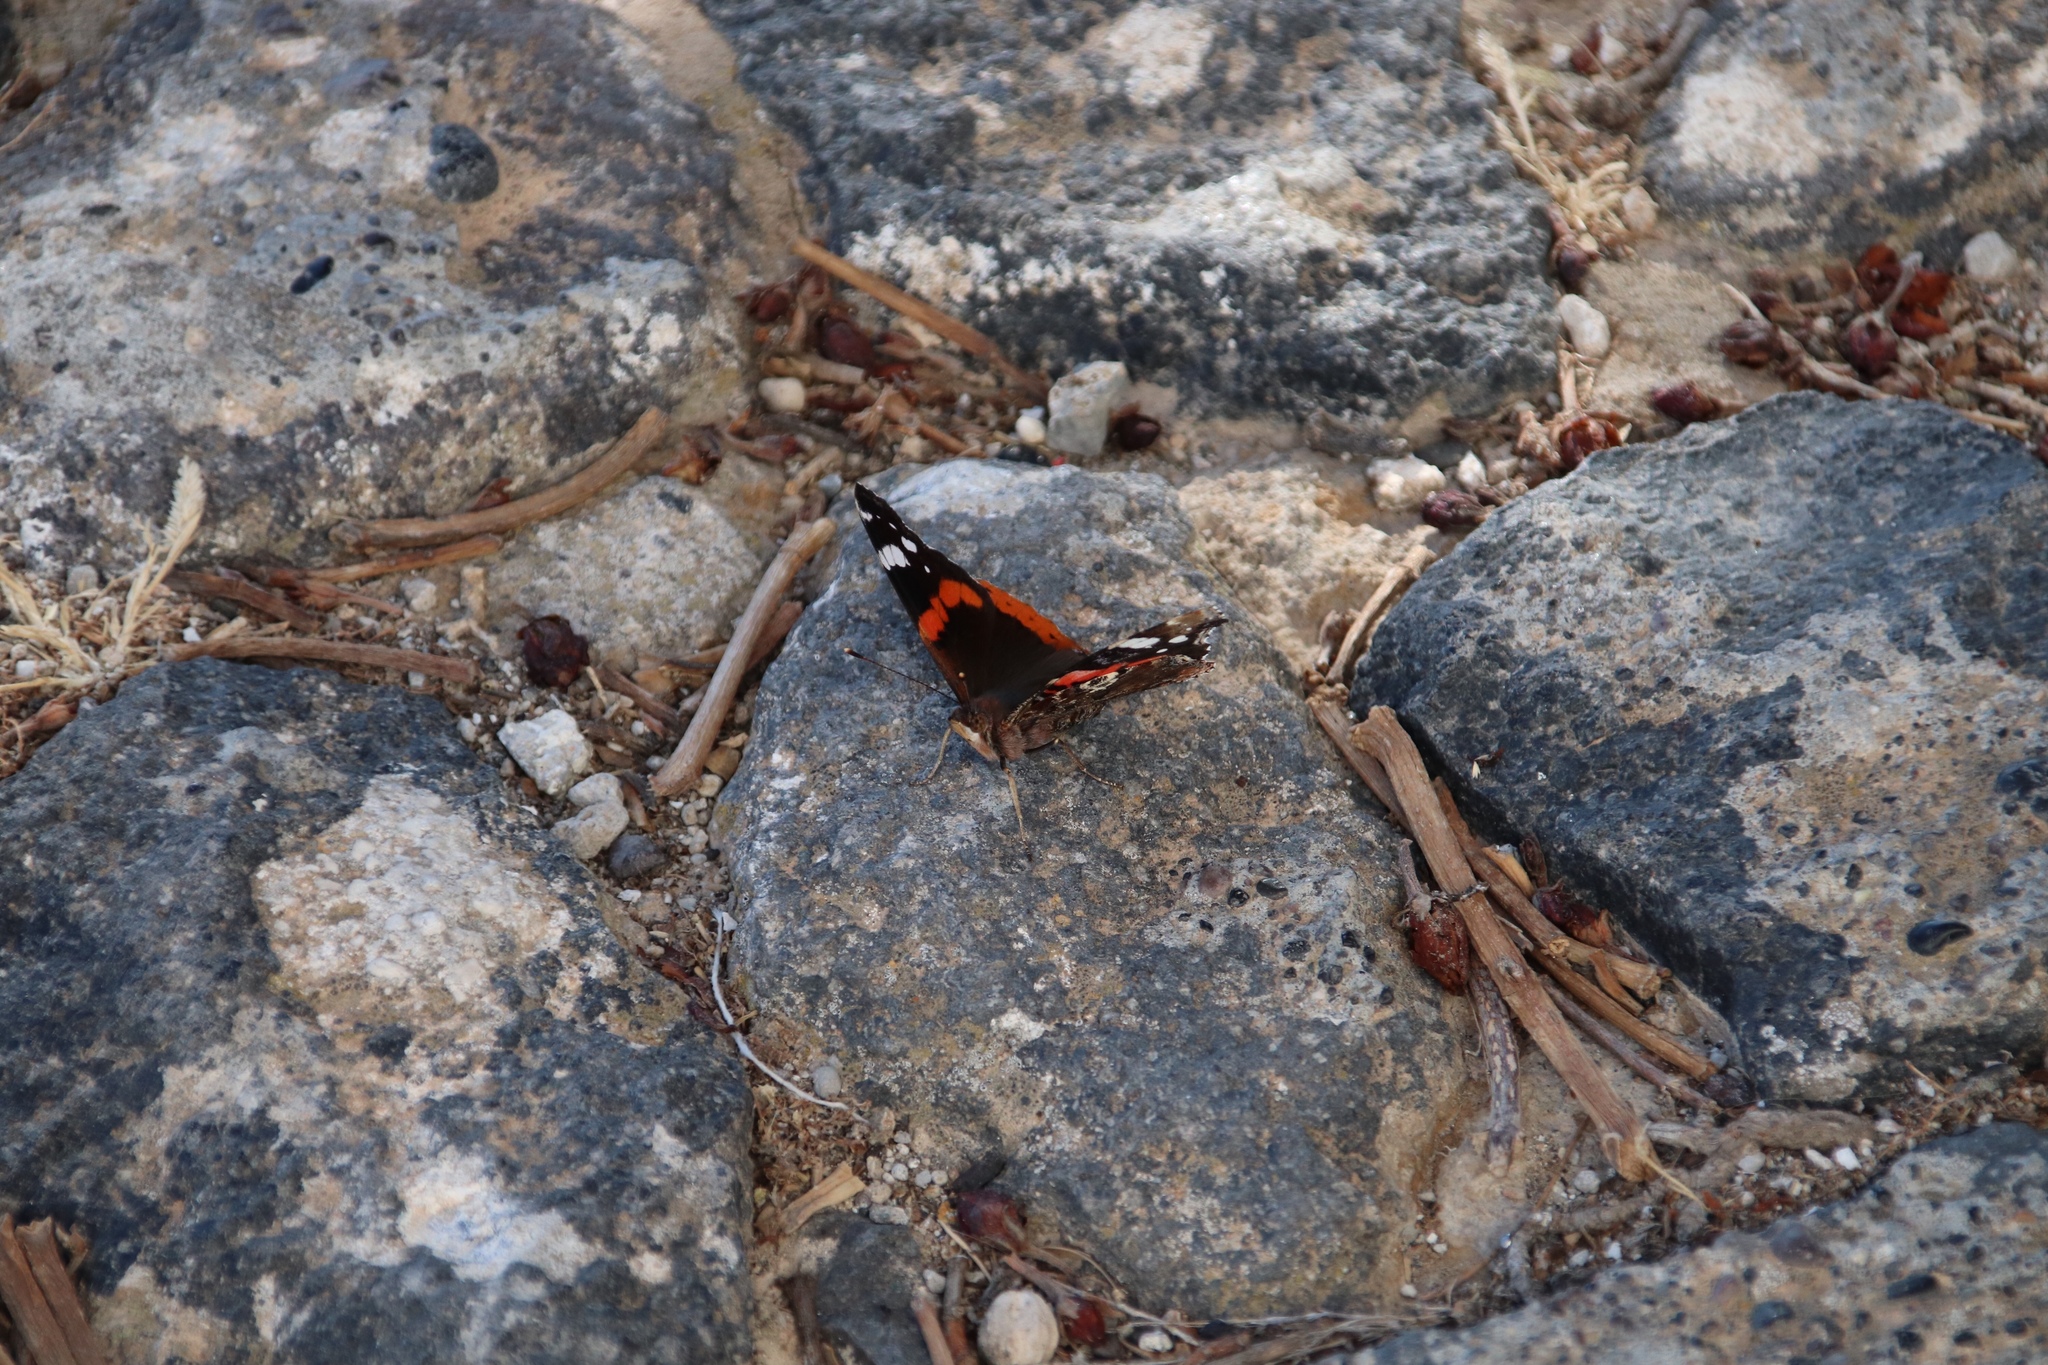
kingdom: Animalia
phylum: Arthropoda
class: Insecta
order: Lepidoptera
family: Nymphalidae
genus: Vanessa
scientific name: Vanessa atalanta
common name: Red admiral
